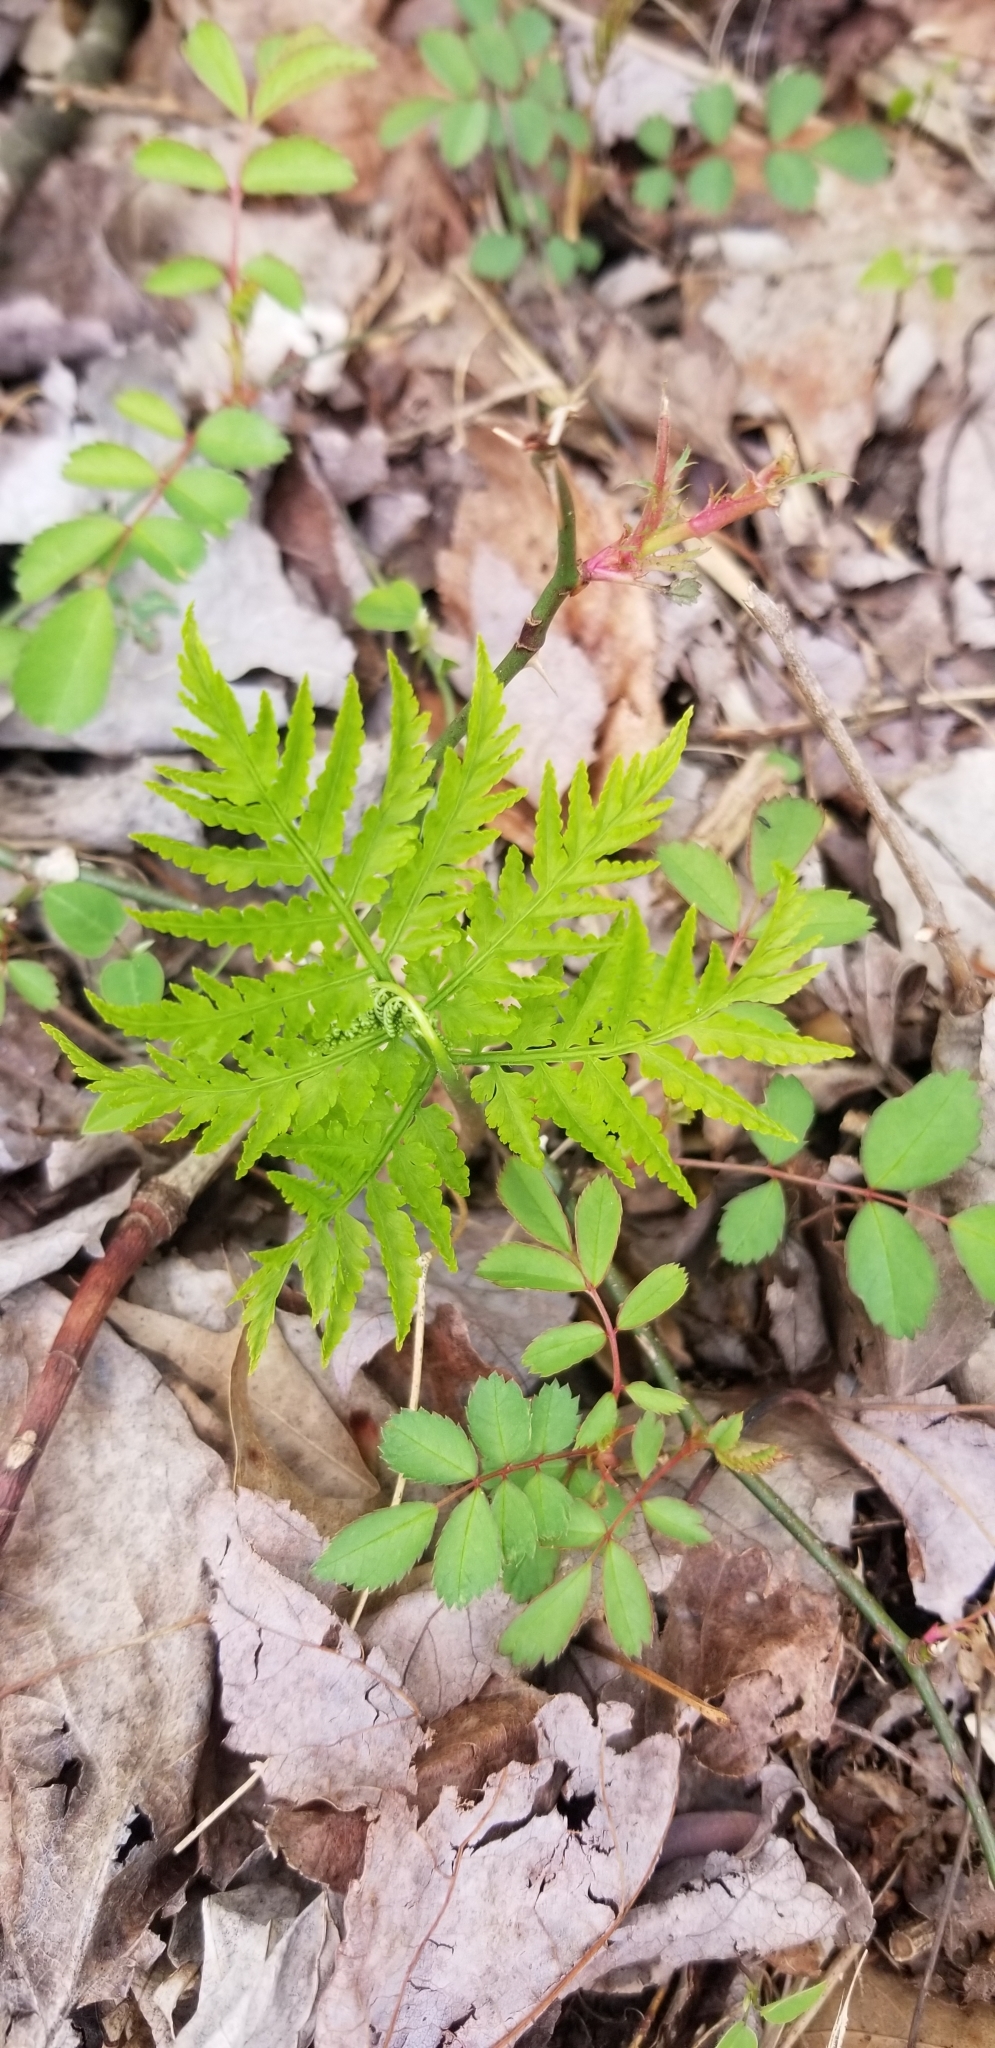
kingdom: Plantae
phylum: Tracheophyta
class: Polypodiopsida
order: Ophioglossales
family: Ophioglossaceae
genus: Botrypus
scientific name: Botrypus virginianus
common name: Common grapefern
